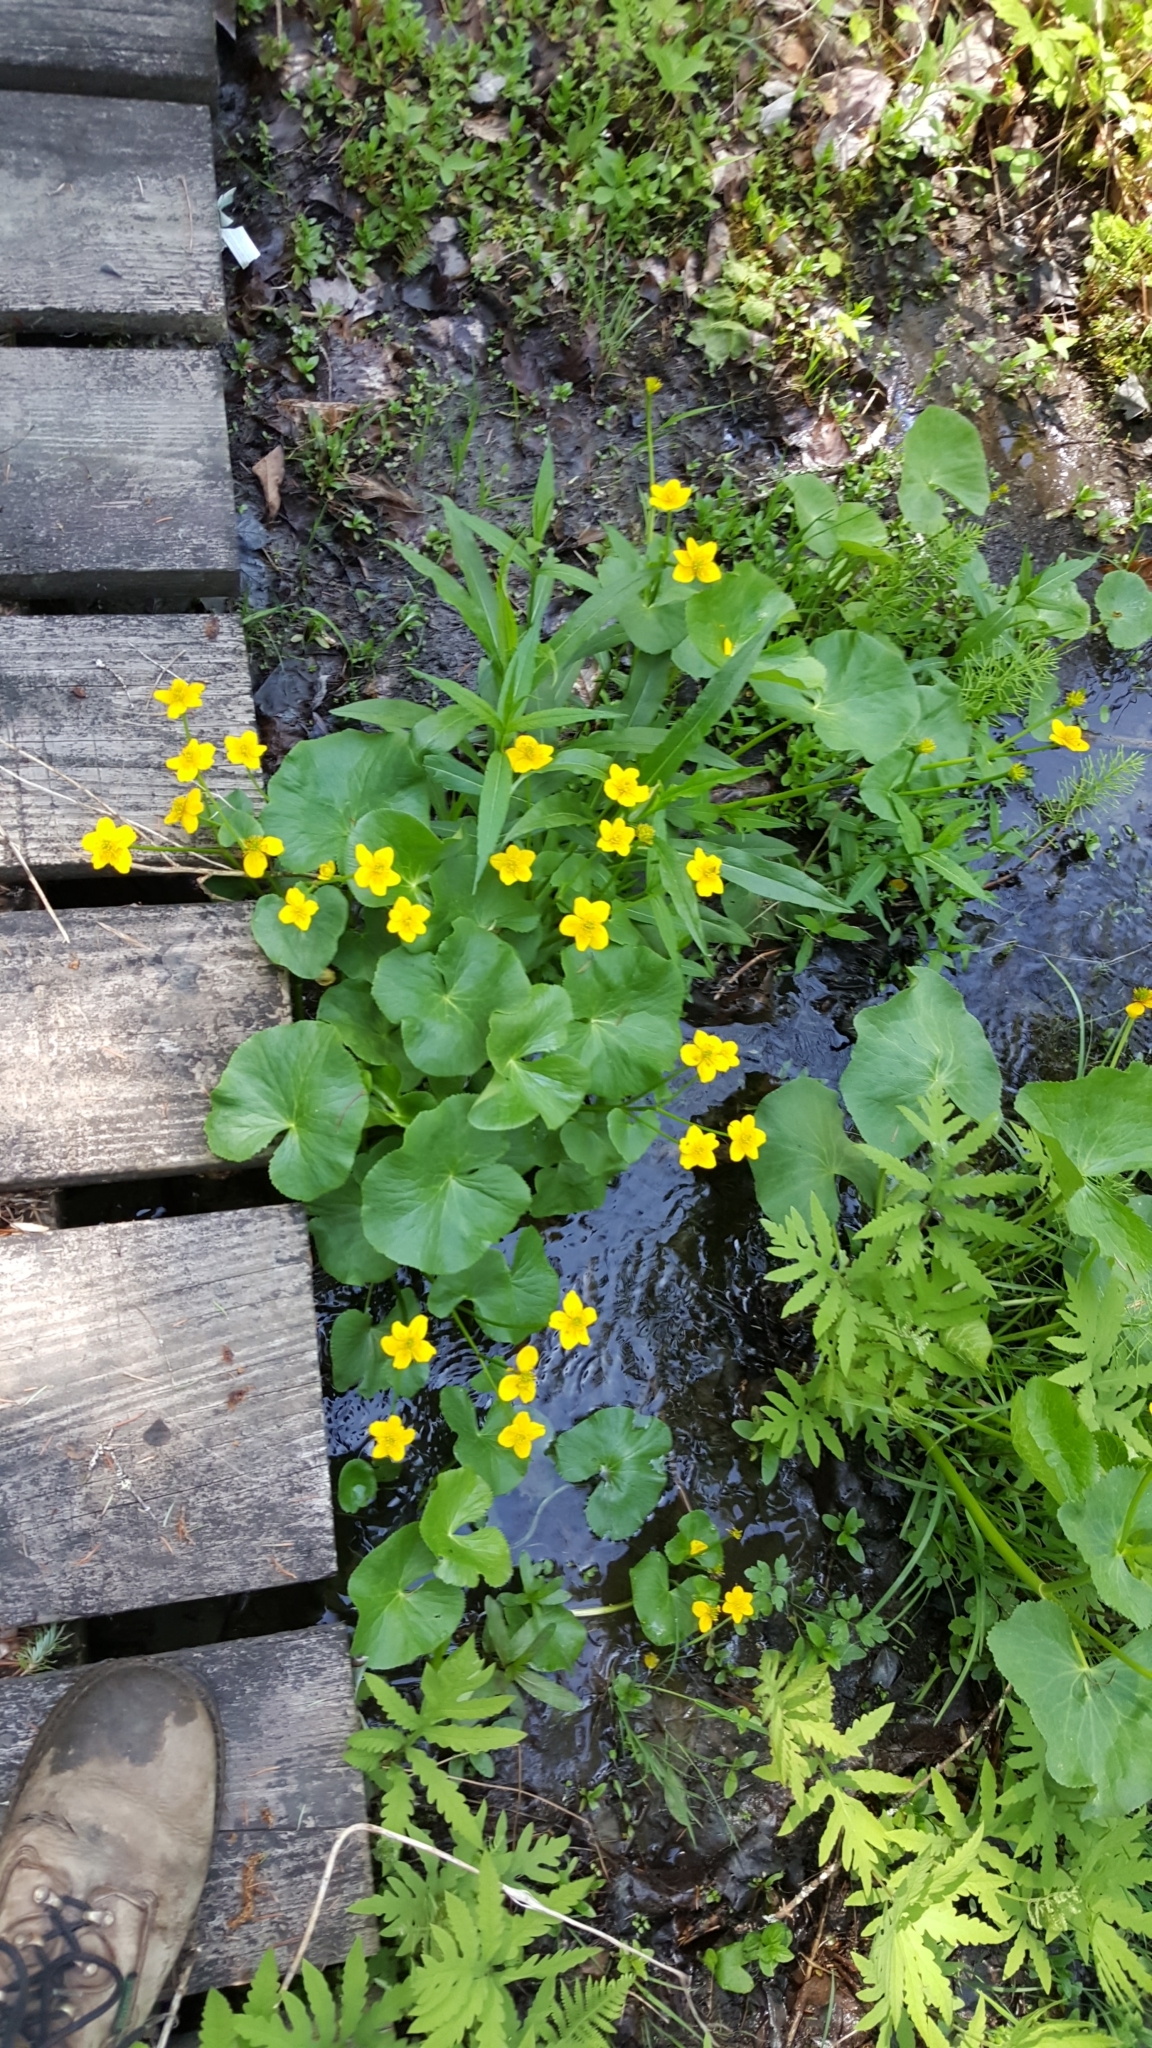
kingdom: Plantae
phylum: Tracheophyta
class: Magnoliopsida
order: Ranunculales
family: Ranunculaceae
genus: Caltha
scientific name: Caltha palustris
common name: Marsh marigold
